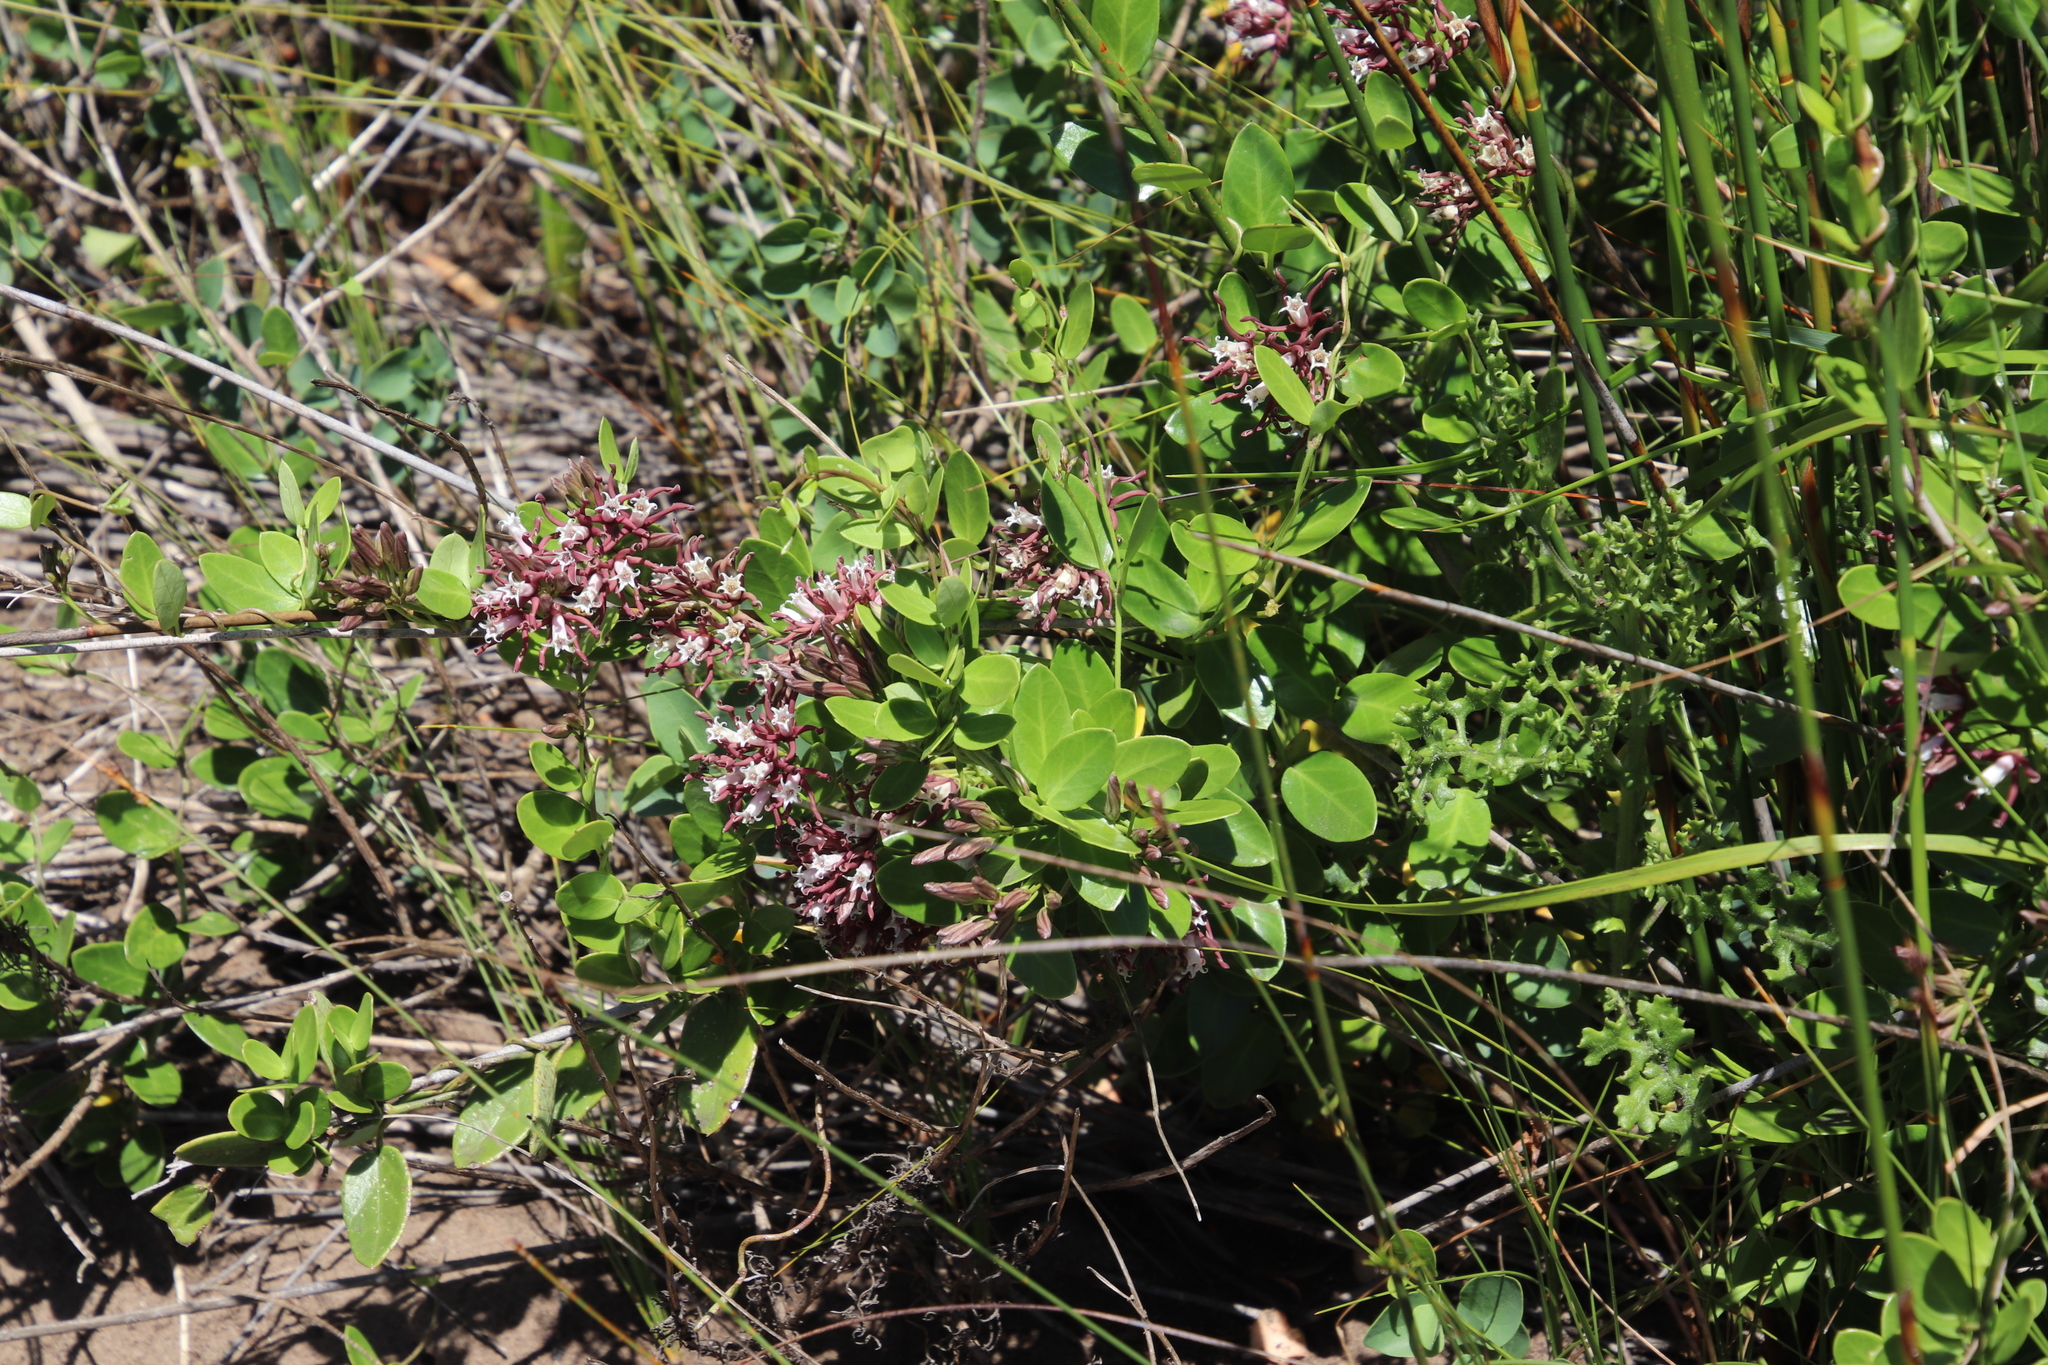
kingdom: Plantae
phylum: Tracheophyta
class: Magnoliopsida
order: Gentianales
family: Apocynaceae
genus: Cynanchum
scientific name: Cynanchum africanum
